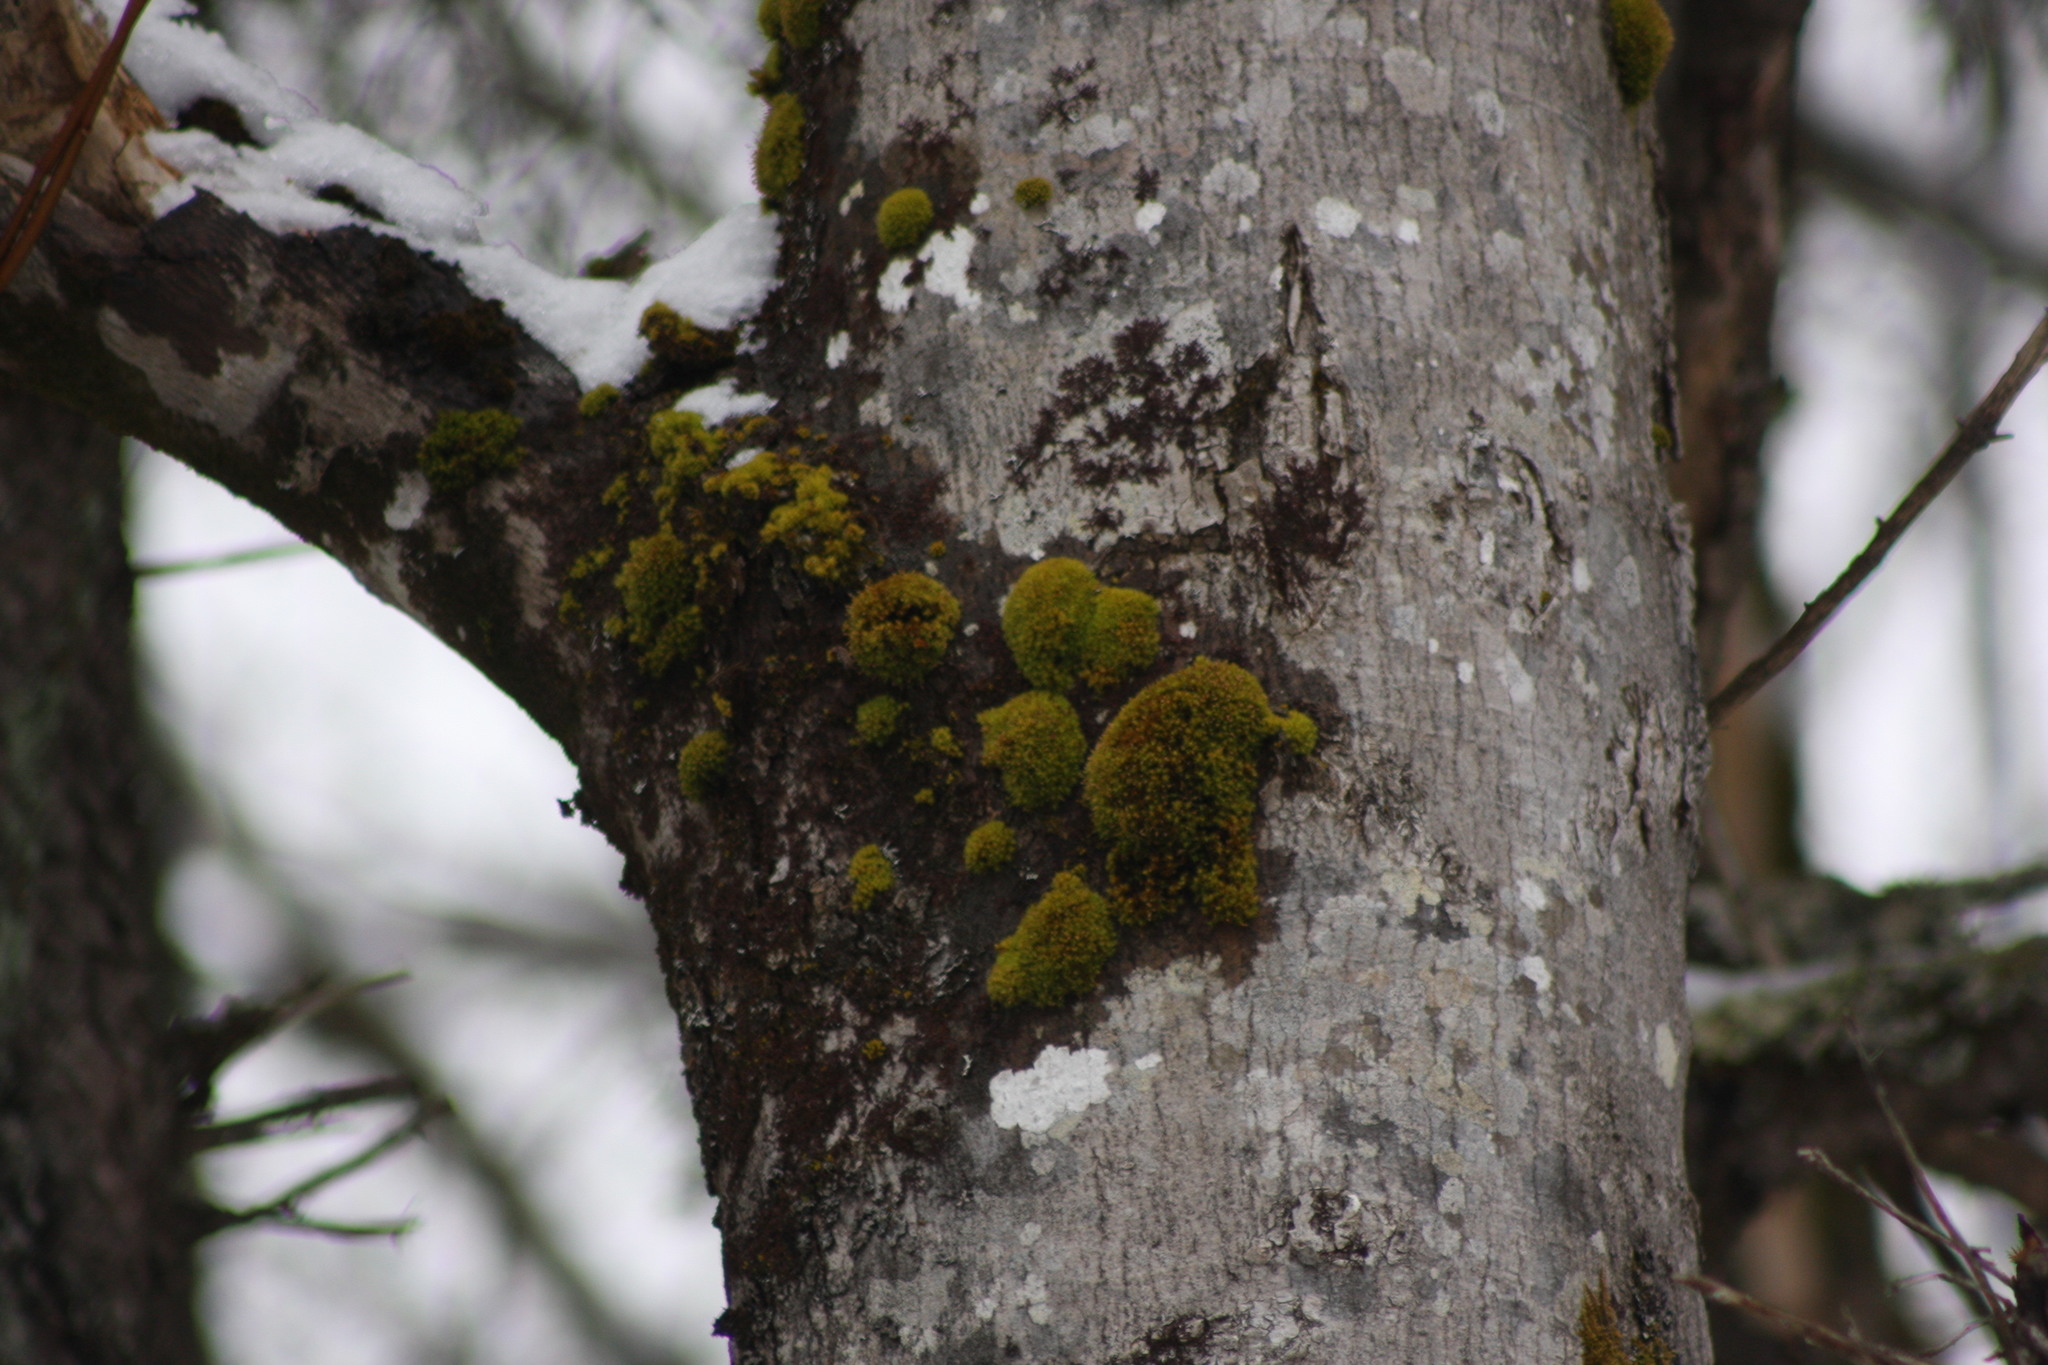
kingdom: Plantae
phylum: Bryophyta
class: Bryopsida
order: Orthotrichales
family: Orthotrichaceae
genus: Ulota
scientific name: Ulota crispa
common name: Crisped pincushion moss
